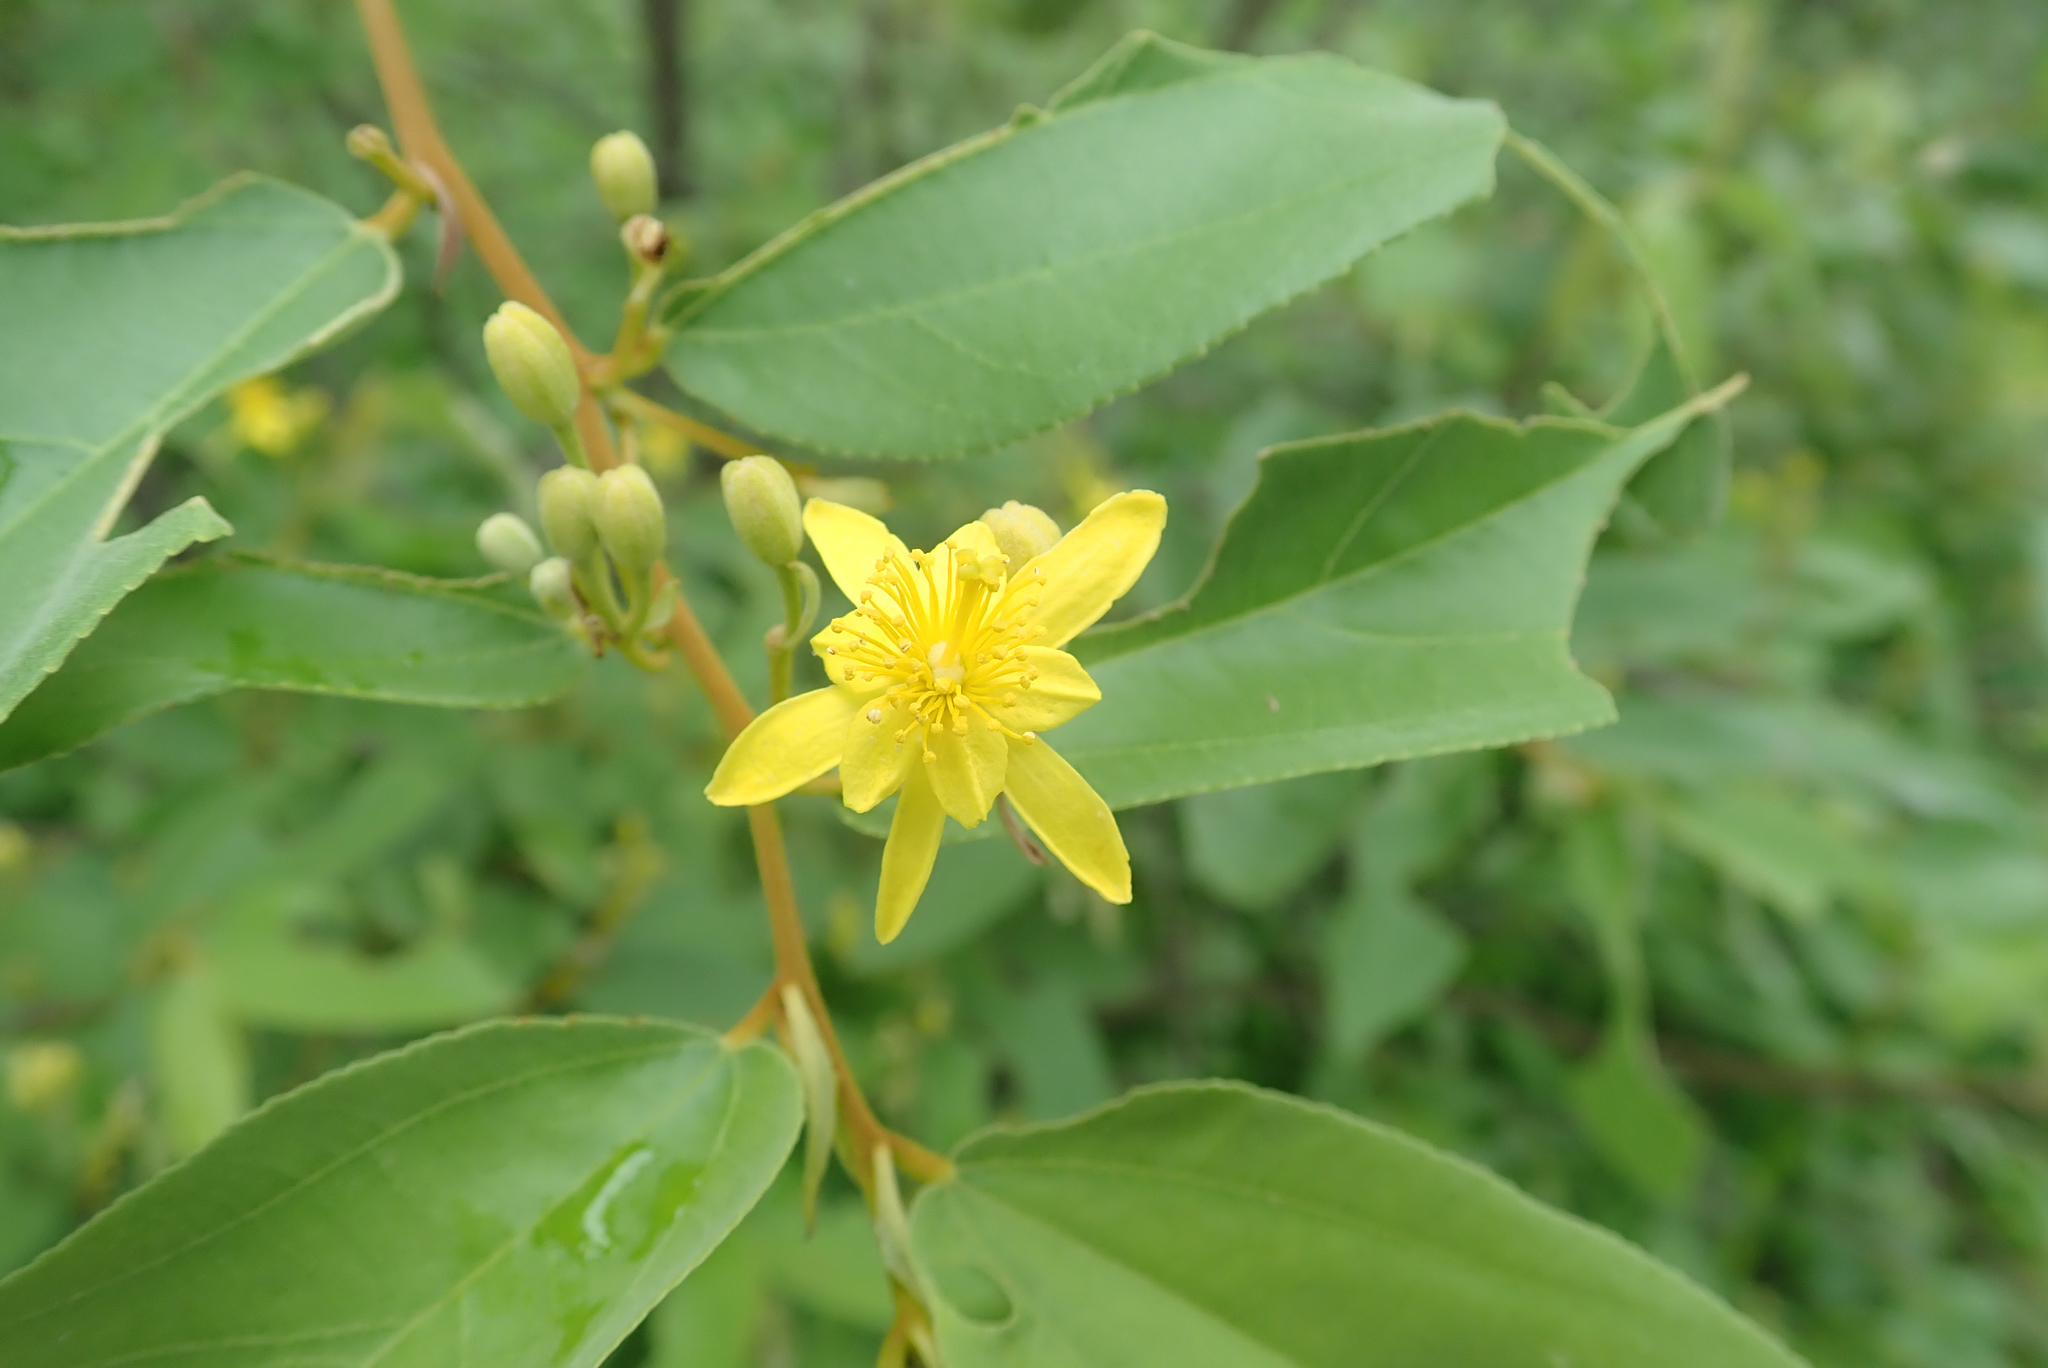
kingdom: Plantae
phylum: Tracheophyta
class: Magnoliopsida
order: Malvales
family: Malvaceae
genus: Grewia
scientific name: Grewia flavescens
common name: Sandpaper raisin
